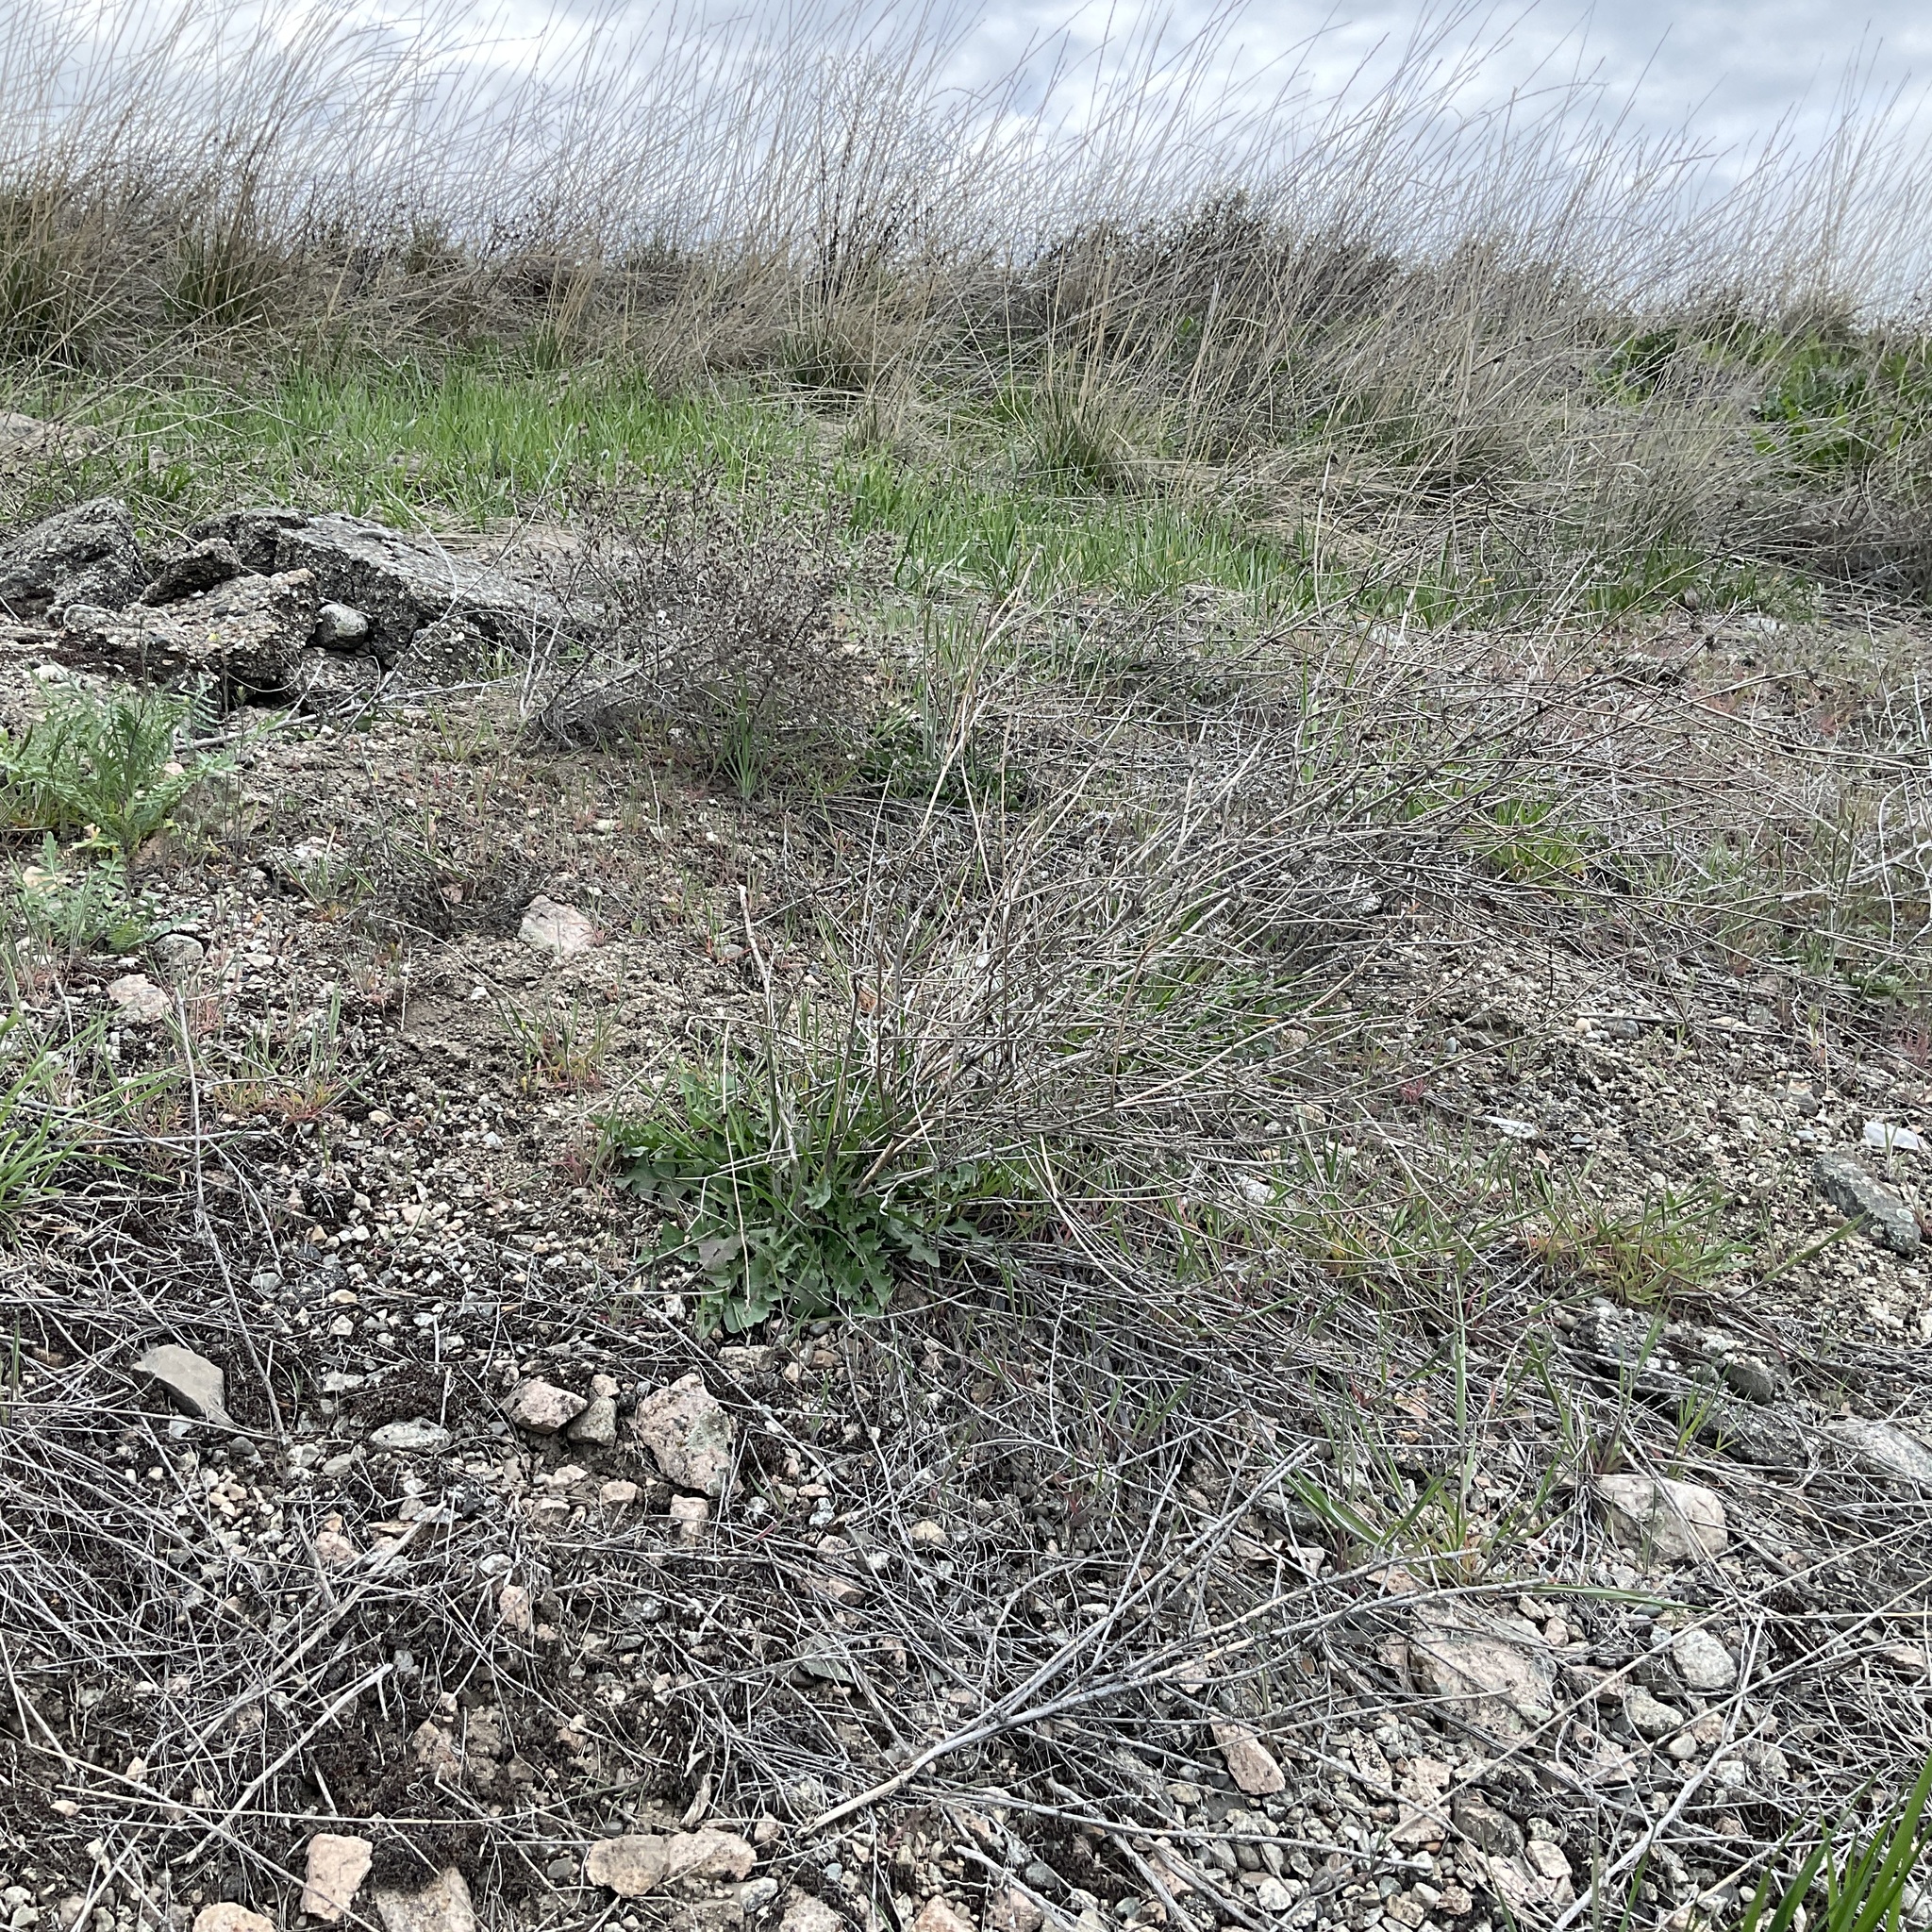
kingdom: Plantae
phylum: Tracheophyta
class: Magnoliopsida
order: Asterales
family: Asteraceae
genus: Chondrilla
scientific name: Chondrilla juncea
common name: Skeleton weed
